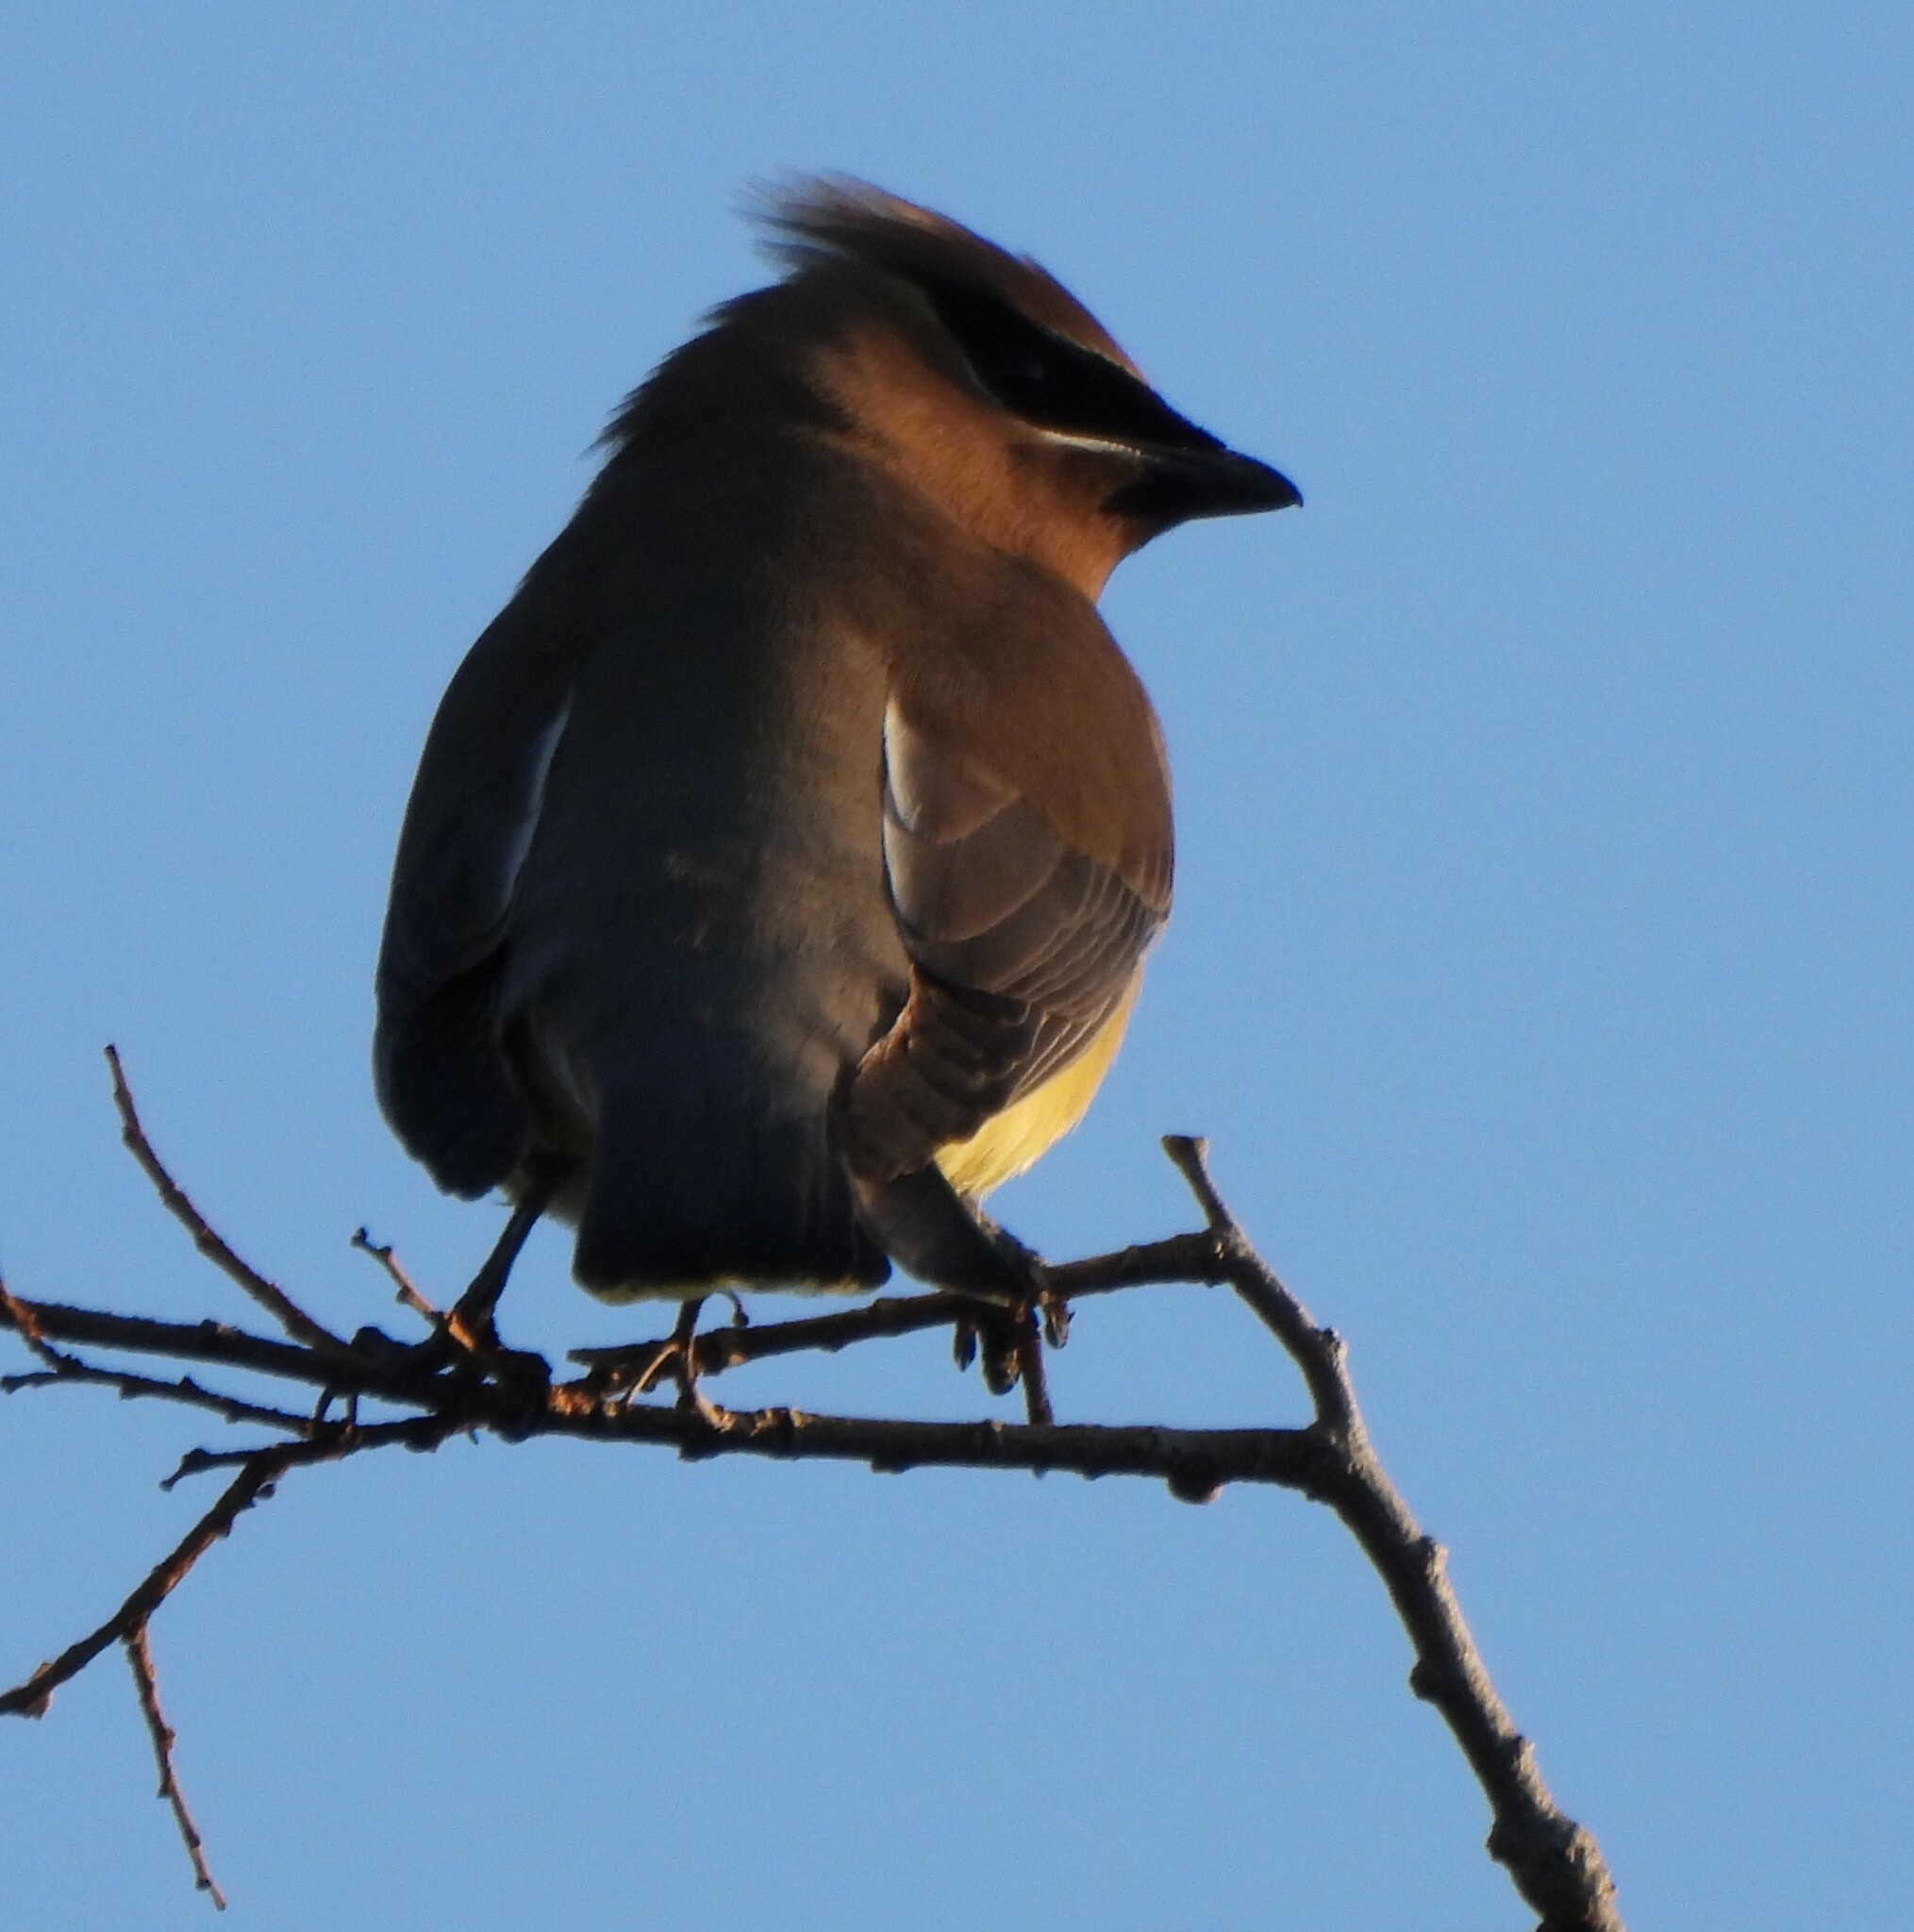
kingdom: Animalia
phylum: Chordata
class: Aves
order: Passeriformes
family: Bombycillidae
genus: Bombycilla
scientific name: Bombycilla cedrorum
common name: Cedar waxwing
